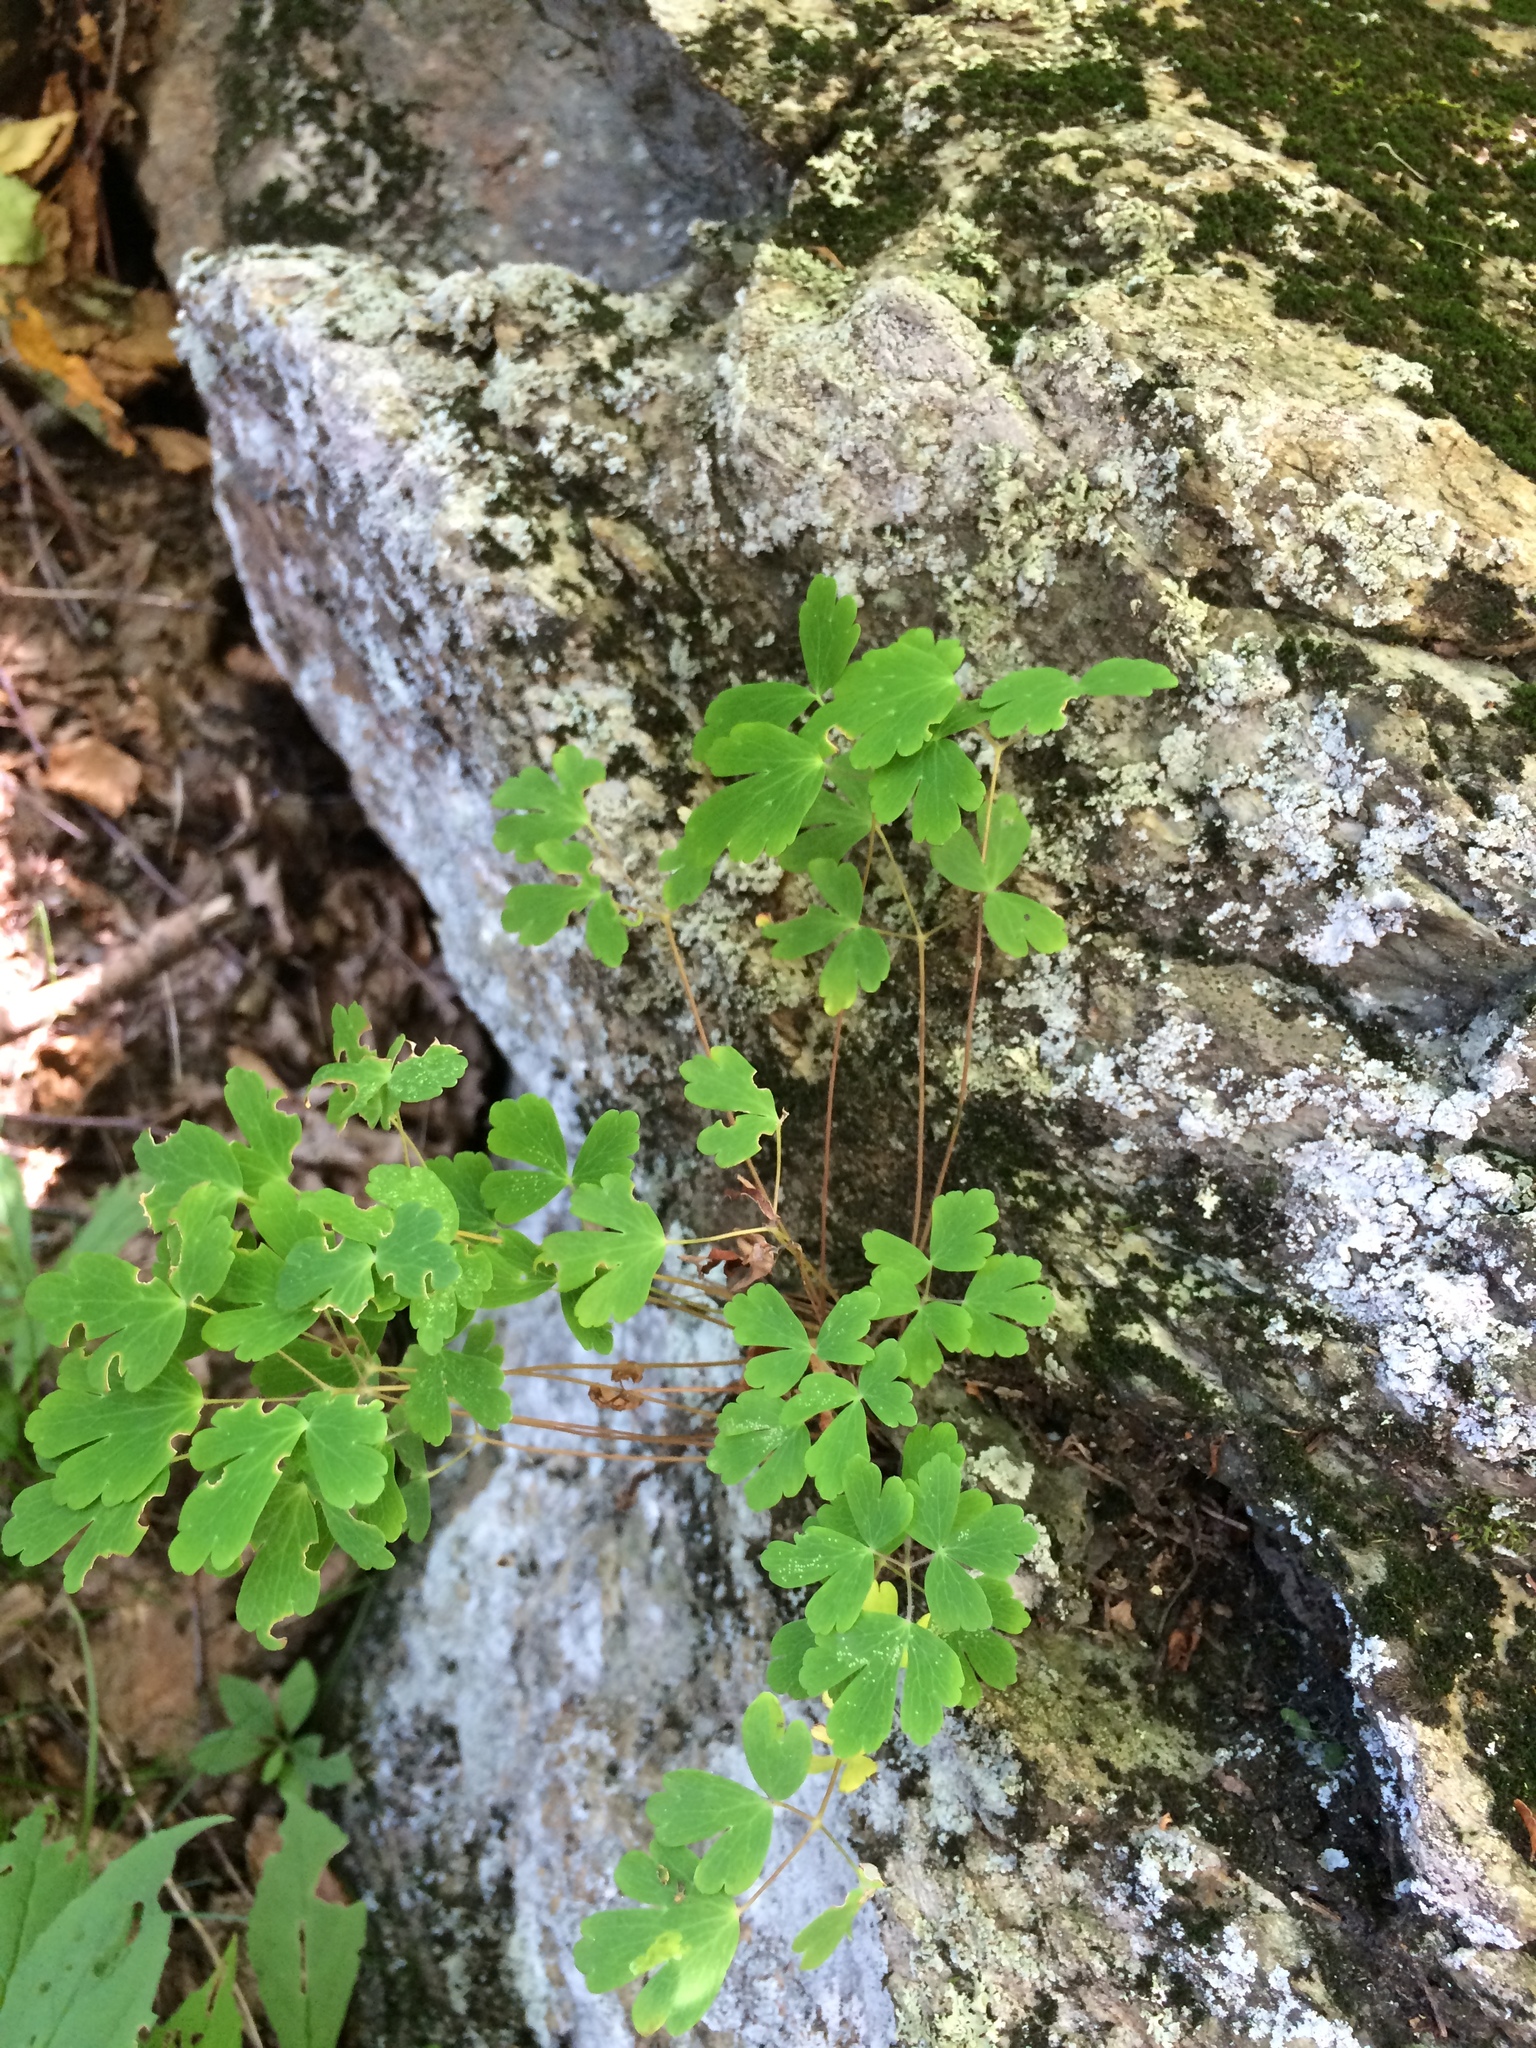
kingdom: Plantae
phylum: Tracheophyta
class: Magnoliopsida
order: Ranunculales
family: Ranunculaceae
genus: Aquilegia
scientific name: Aquilegia
